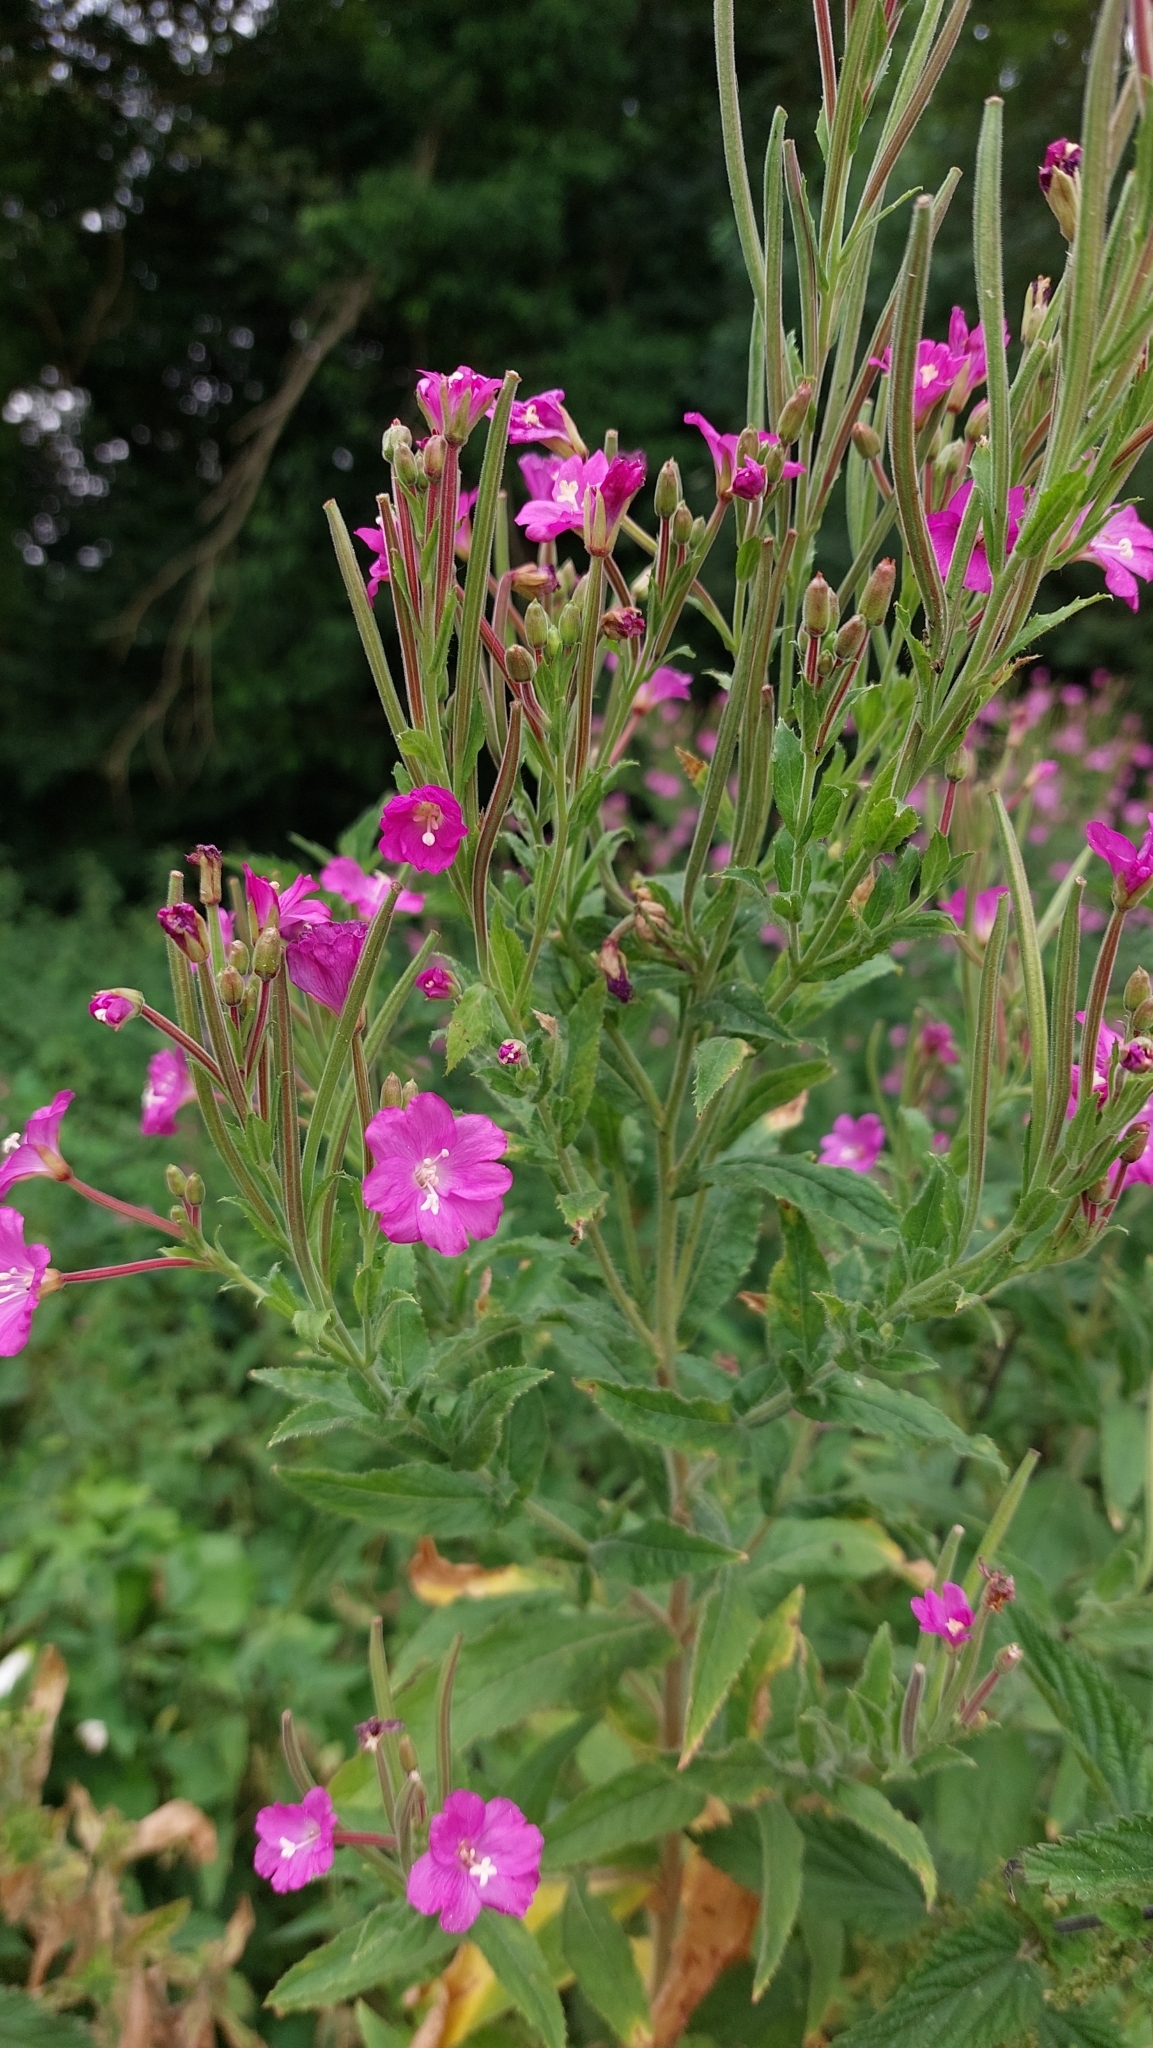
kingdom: Plantae
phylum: Tracheophyta
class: Magnoliopsida
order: Myrtales
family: Onagraceae
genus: Epilobium
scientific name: Epilobium hirsutum
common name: Great willowherb
